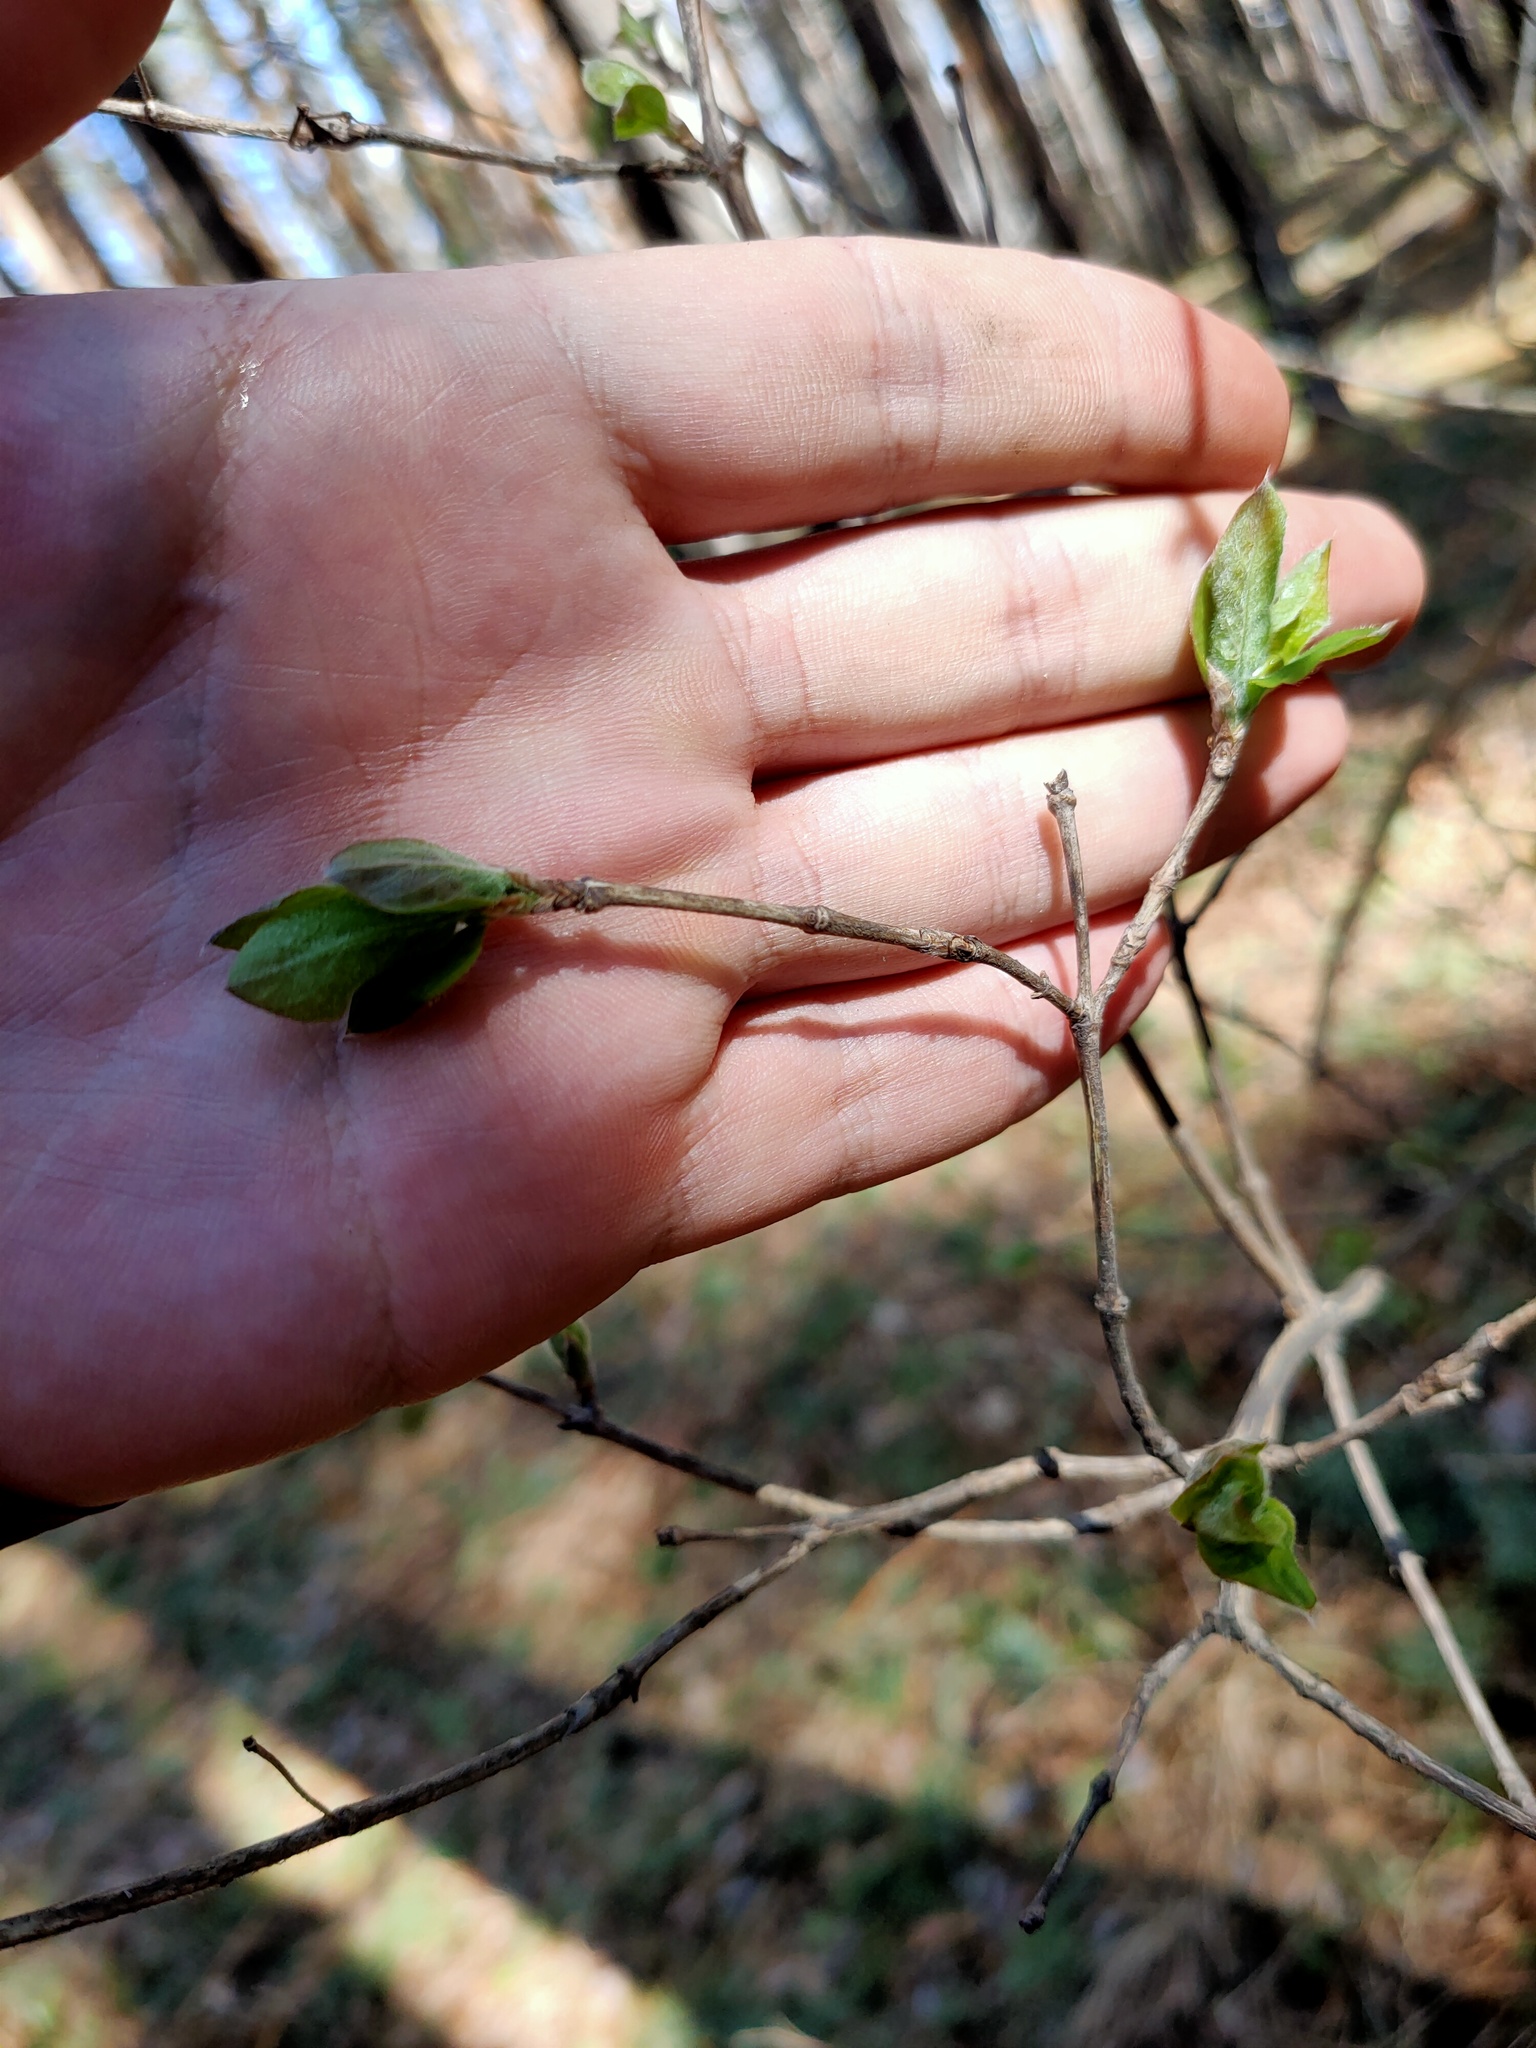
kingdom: Plantae
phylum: Tracheophyta
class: Magnoliopsida
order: Dipsacales
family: Caprifoliaceae
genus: Lonicera
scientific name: Lonicera xylosteum
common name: Fly honeysuckle
